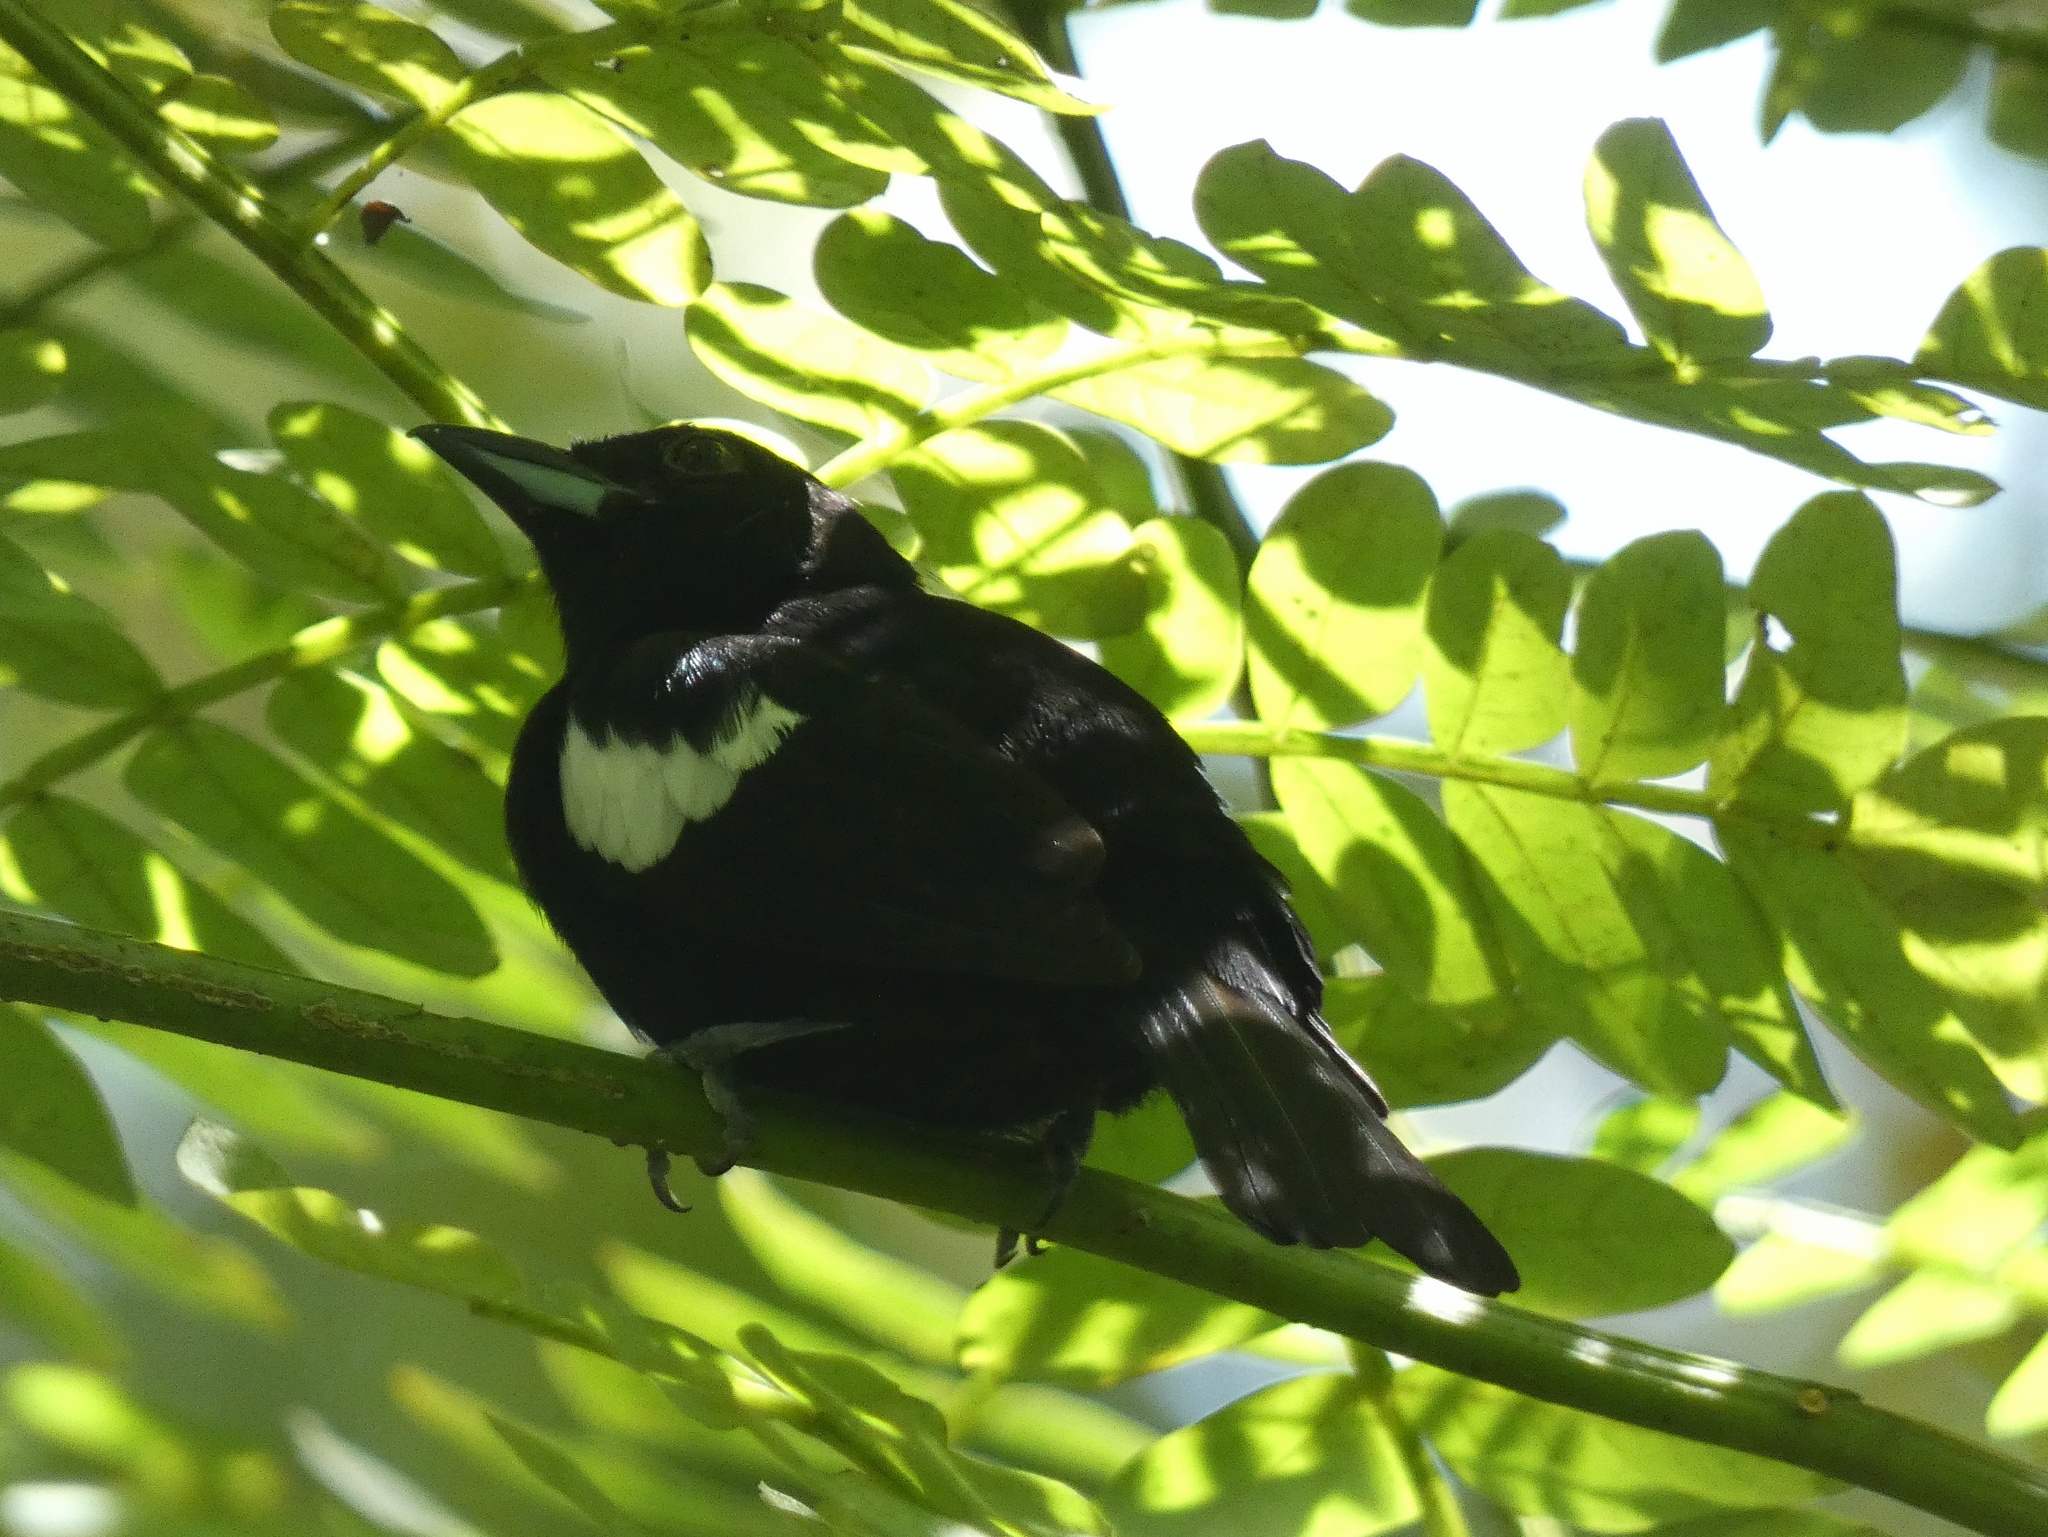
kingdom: Animalia
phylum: Chordata
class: Aves
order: Passeriformes
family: Thraupidae
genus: Loriotus
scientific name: Loriotus luctuosus
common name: White-shouldered tanager
